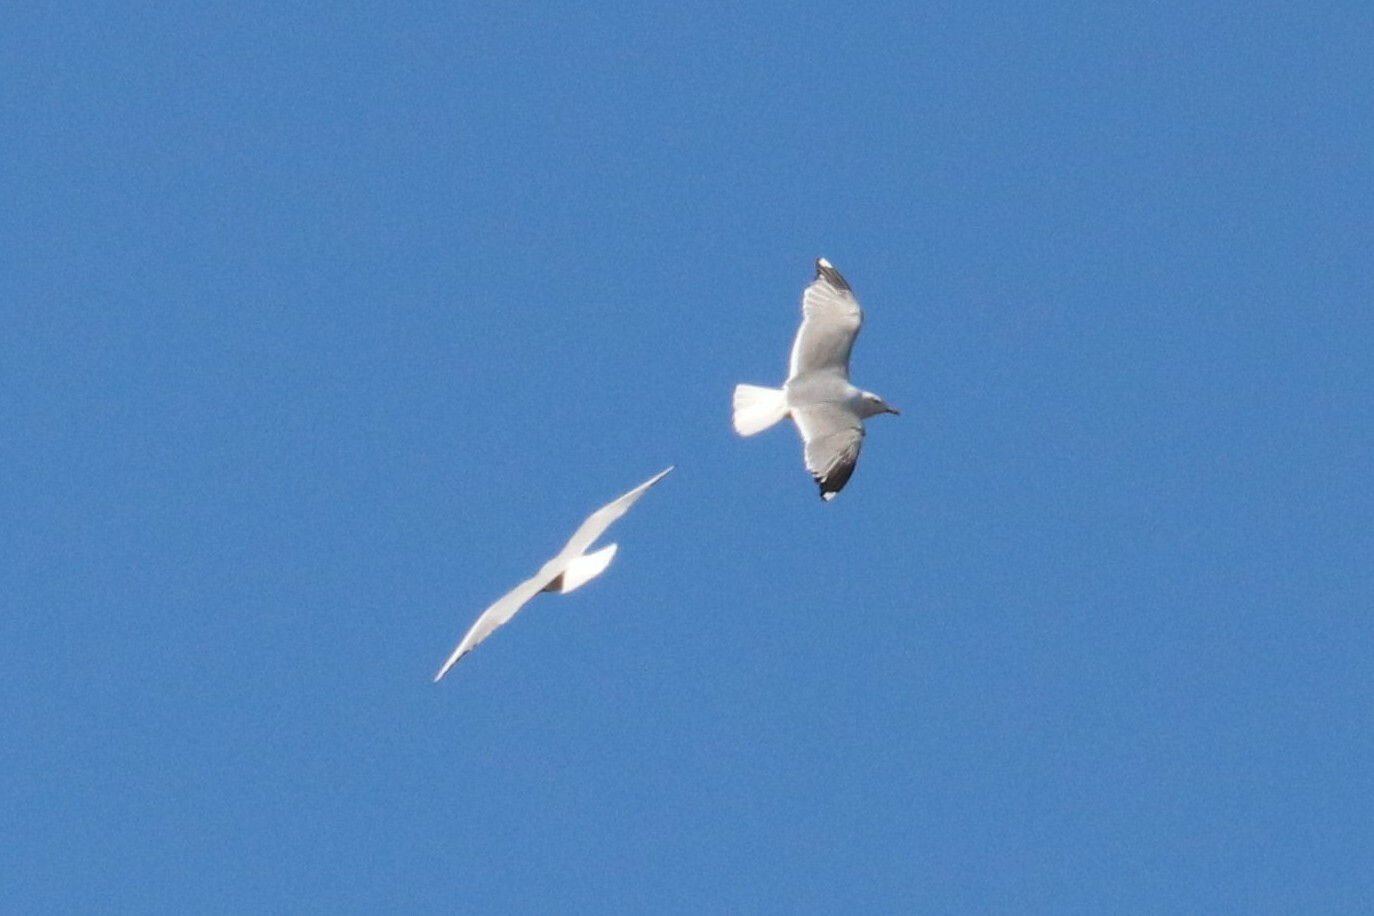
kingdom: Animalia
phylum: Chordata
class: Aves
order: Charadriiformes
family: Laridae
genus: Larus
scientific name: Larus canus
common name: Mew gull
